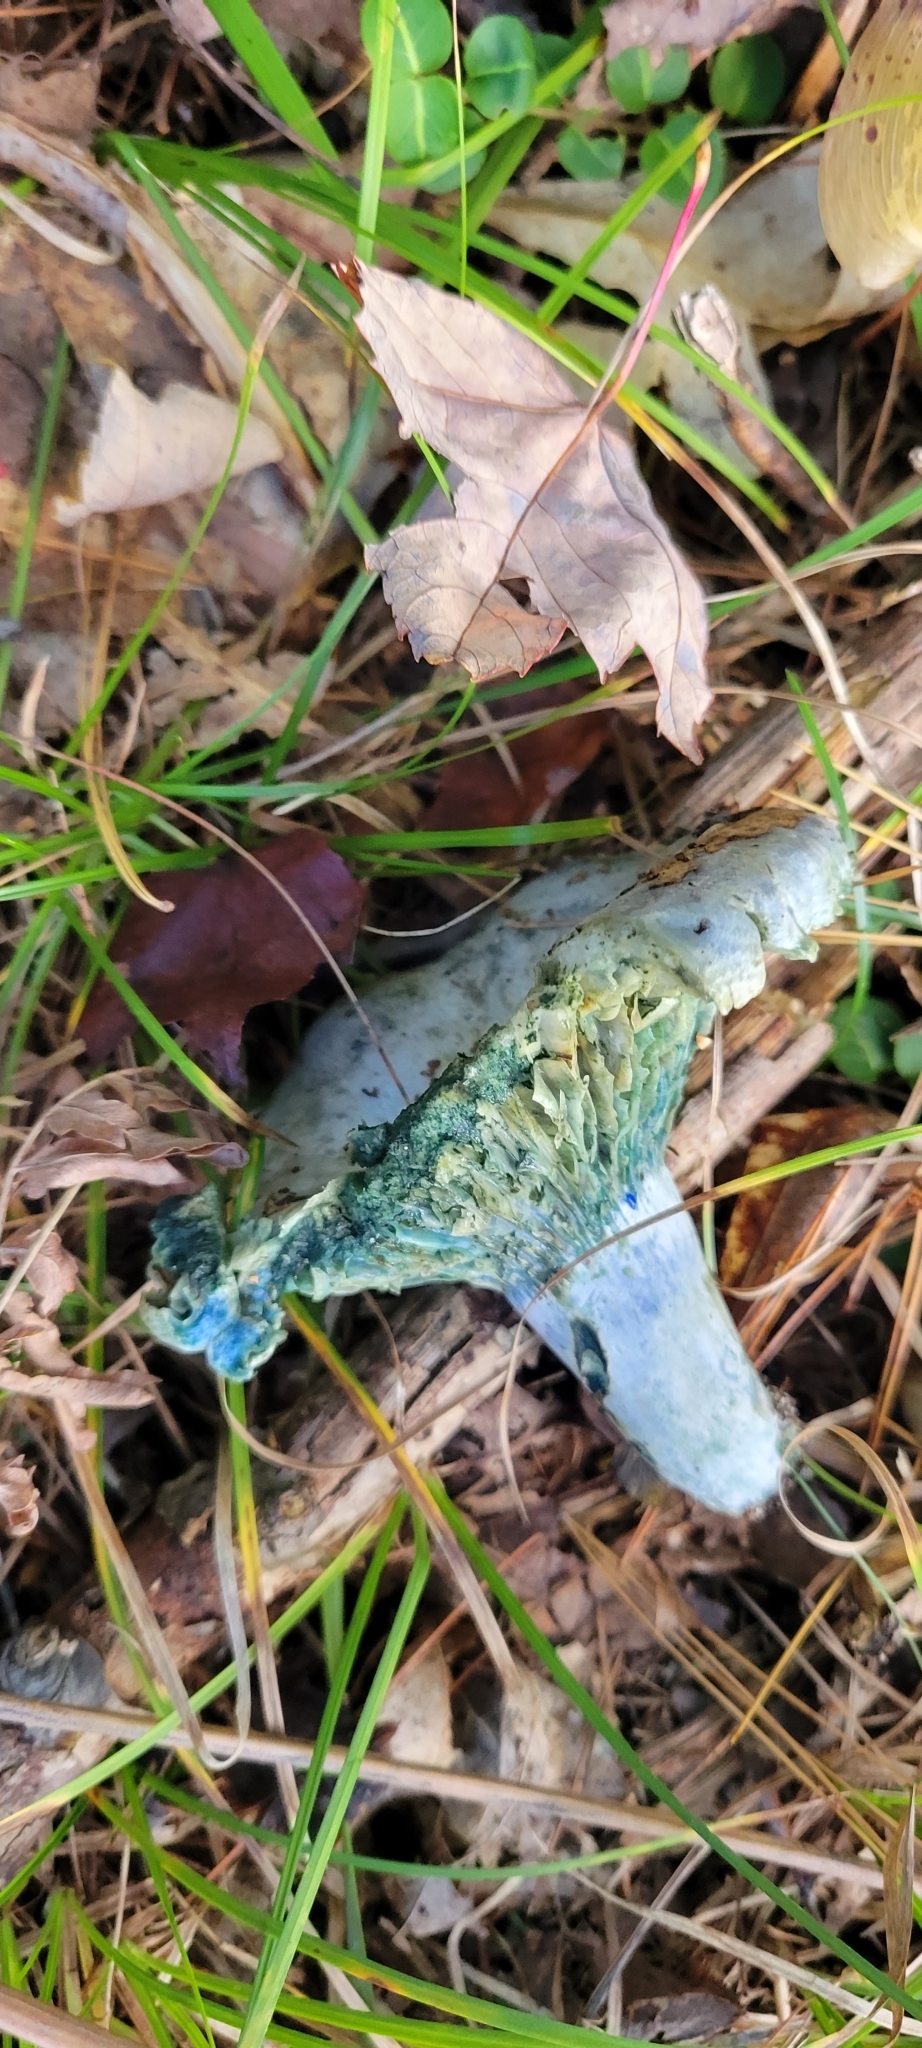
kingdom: Fungi
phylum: Basidiomycota
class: Agaricomycetes
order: Russulales
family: Russulaceae
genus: Lactarius
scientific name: Lactarius indigo
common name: Indigo milk cap
